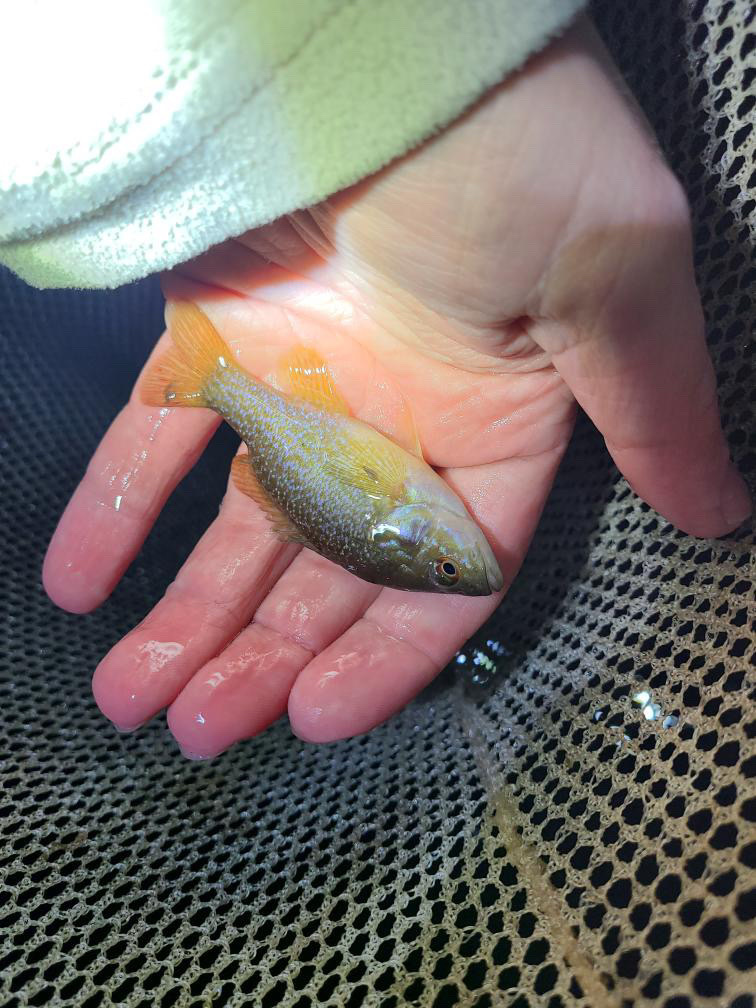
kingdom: Animalia
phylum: Chordata
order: Perciformes
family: Centrarchidae
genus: Lepomis
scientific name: Lepomis cyanellus
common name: Green sunfish
